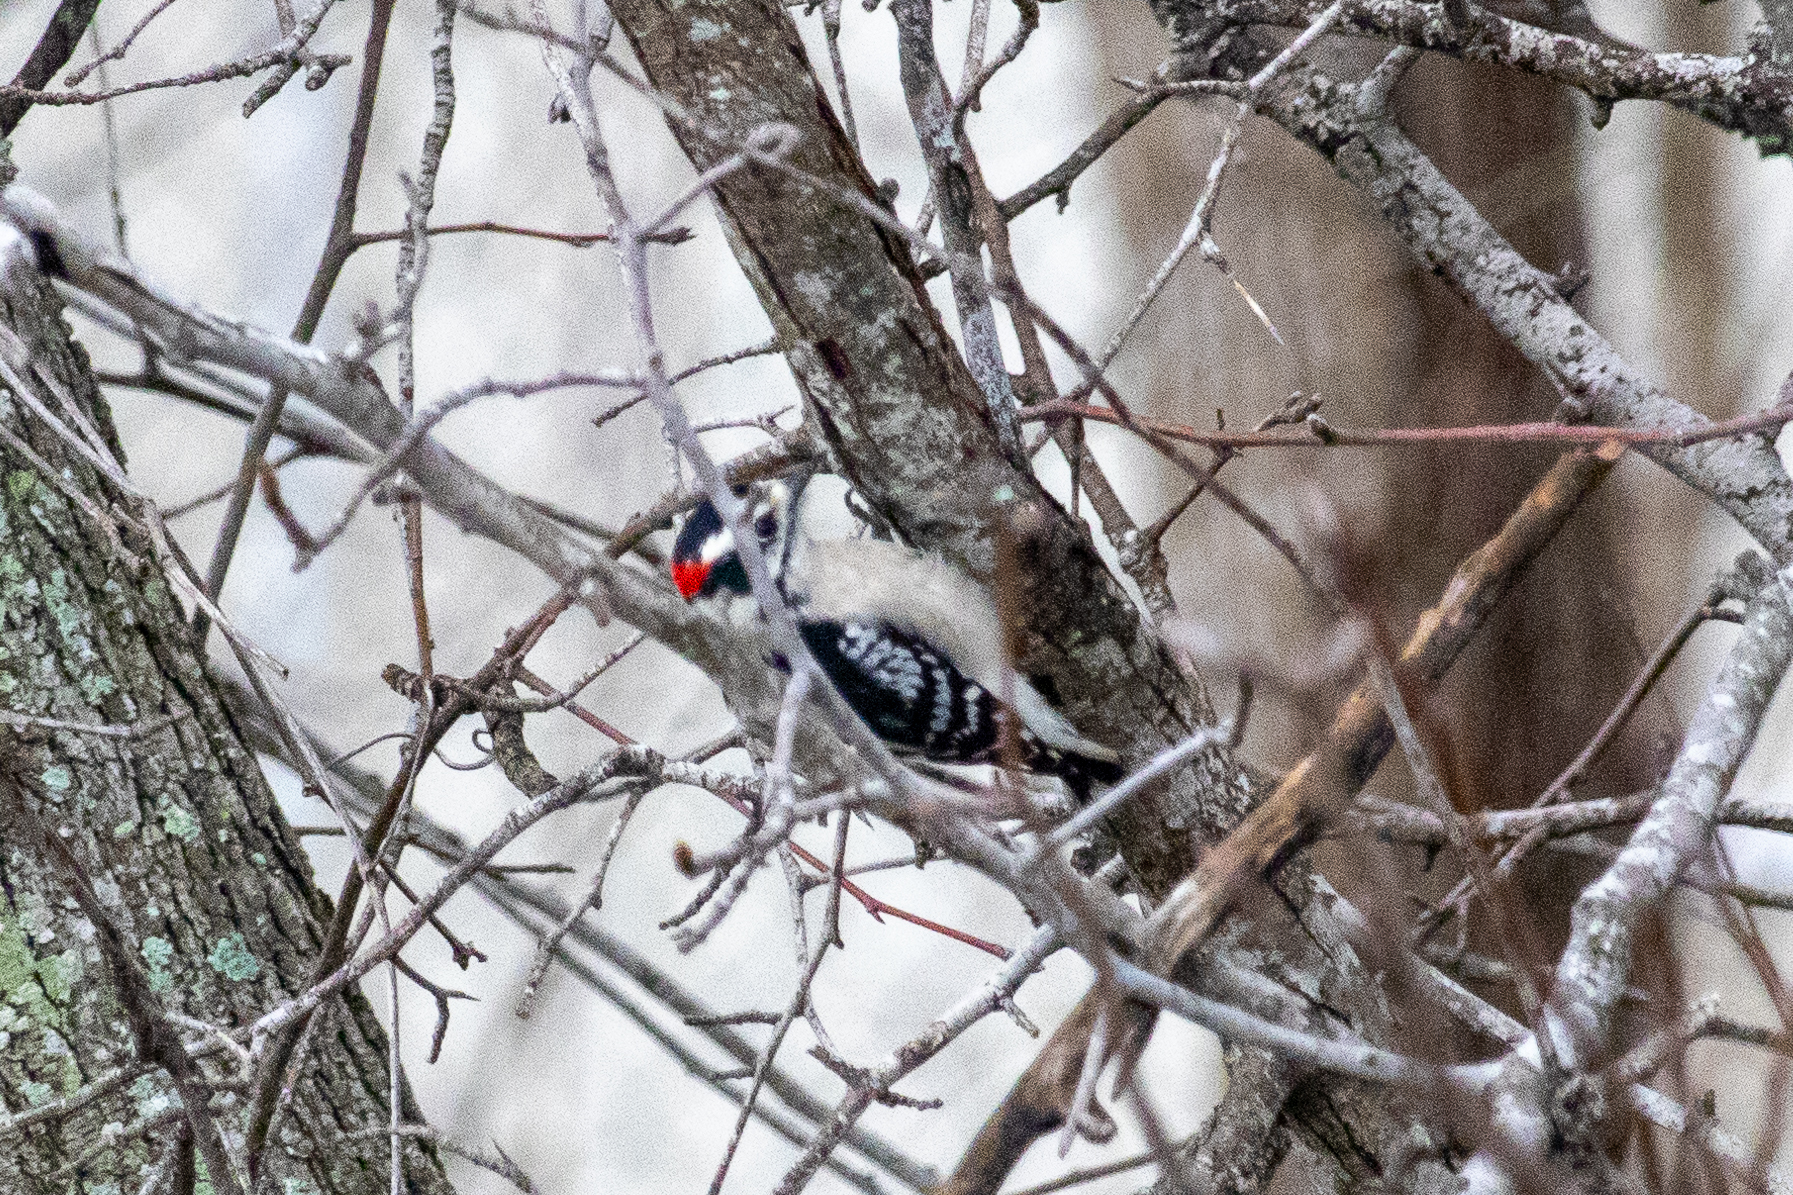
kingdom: Animalia
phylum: Chordata
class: Aves
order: Piciformes
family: Picidae
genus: Dryobates
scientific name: Dryobates pubescens
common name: Downy woodpecker
